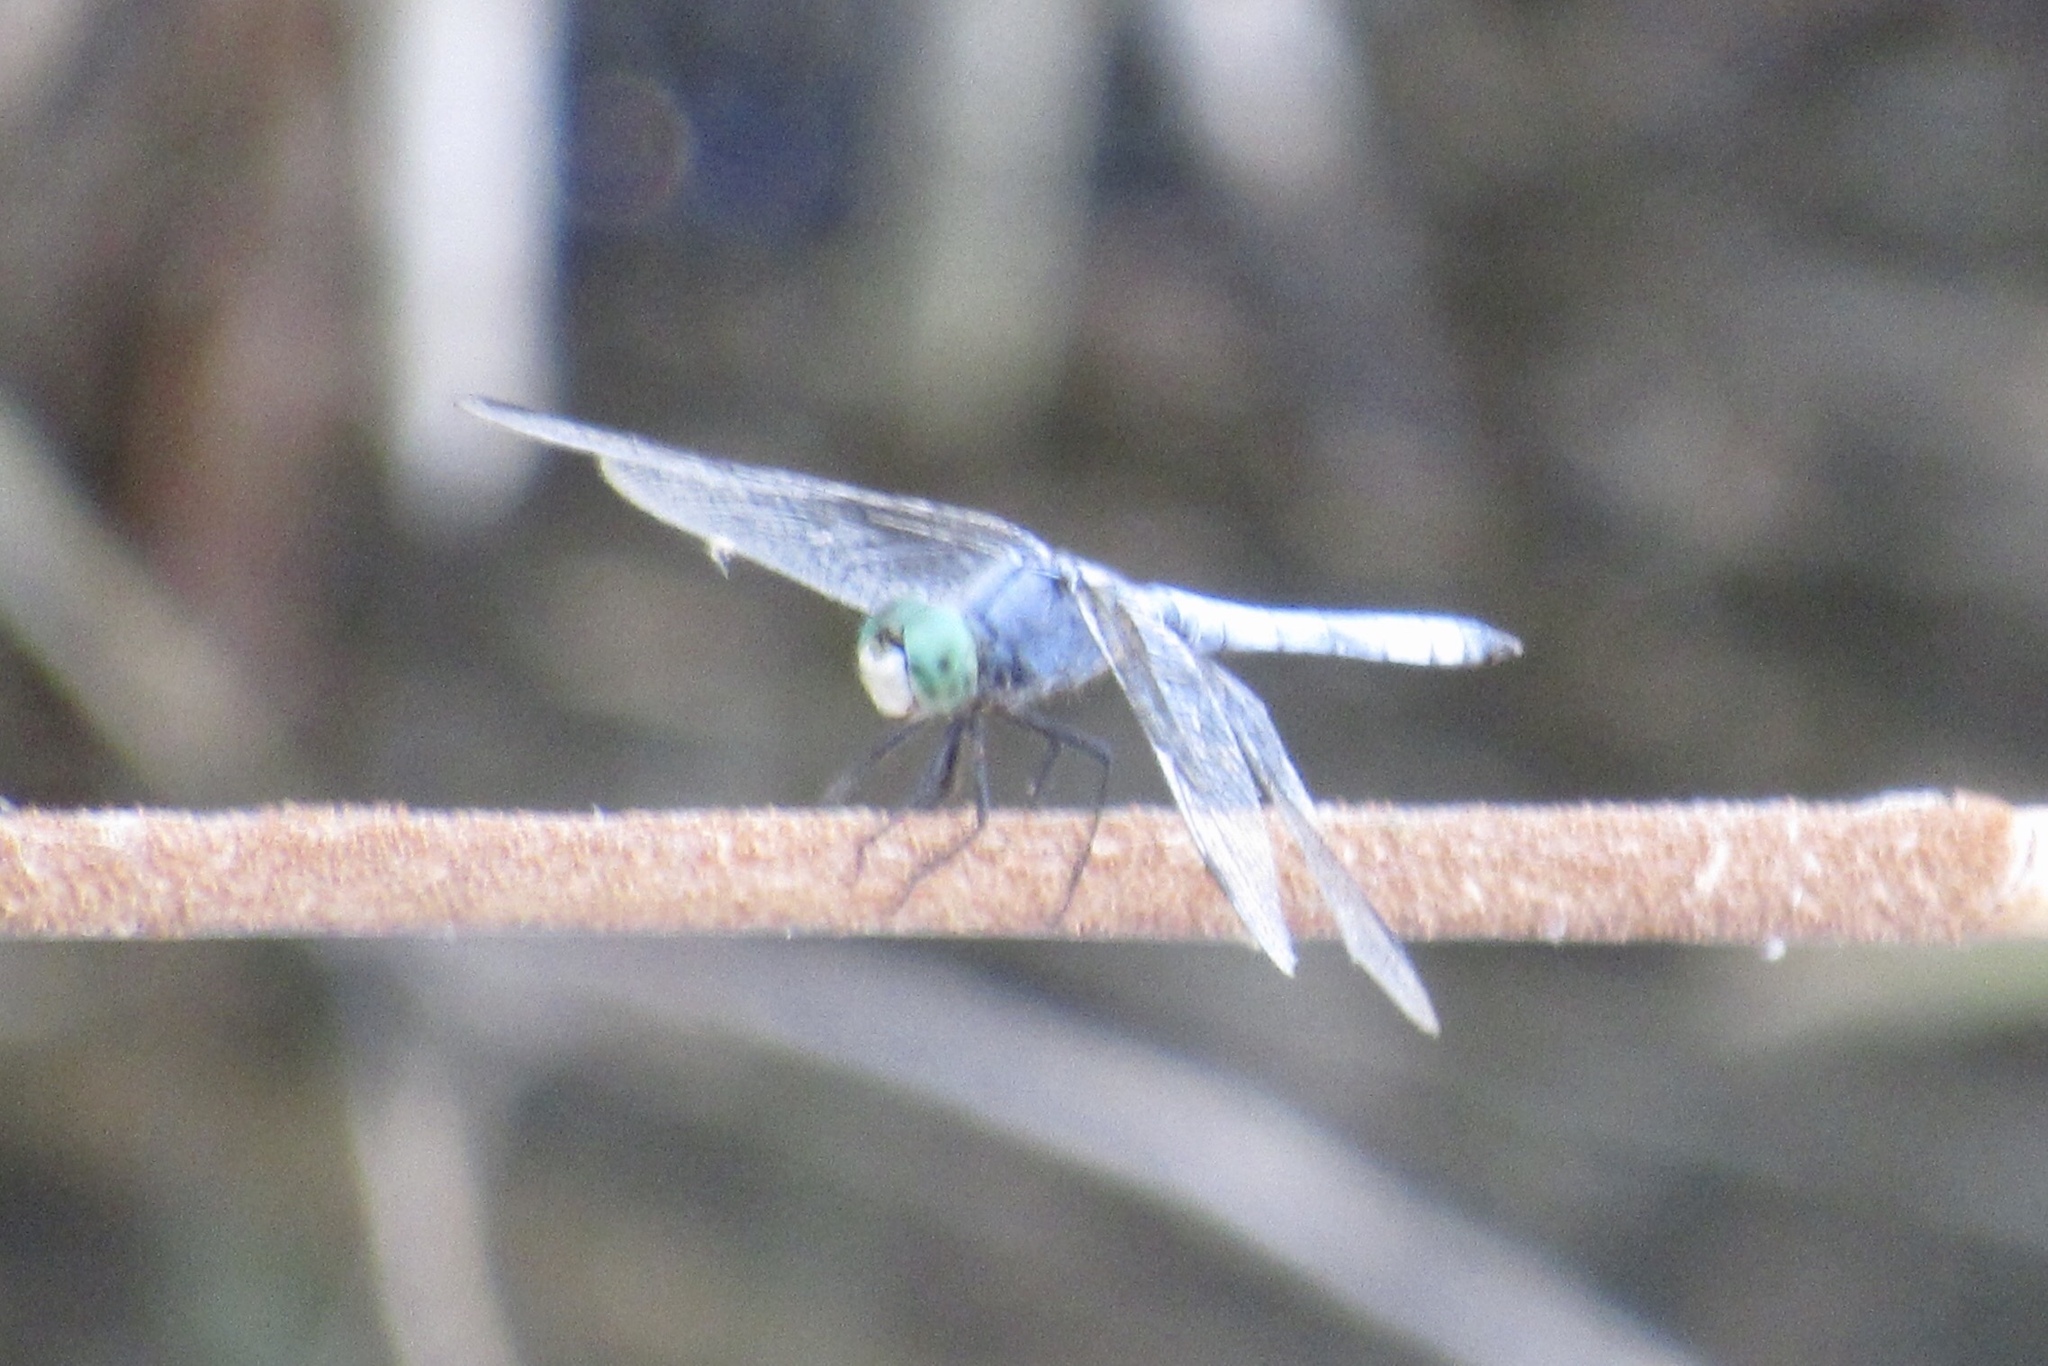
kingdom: Animalia
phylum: Arthropoda
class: Insecta
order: Odonata
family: Libellulidae
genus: Pachydiplax
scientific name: Pachydiplax longipennis
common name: Blue dasher
